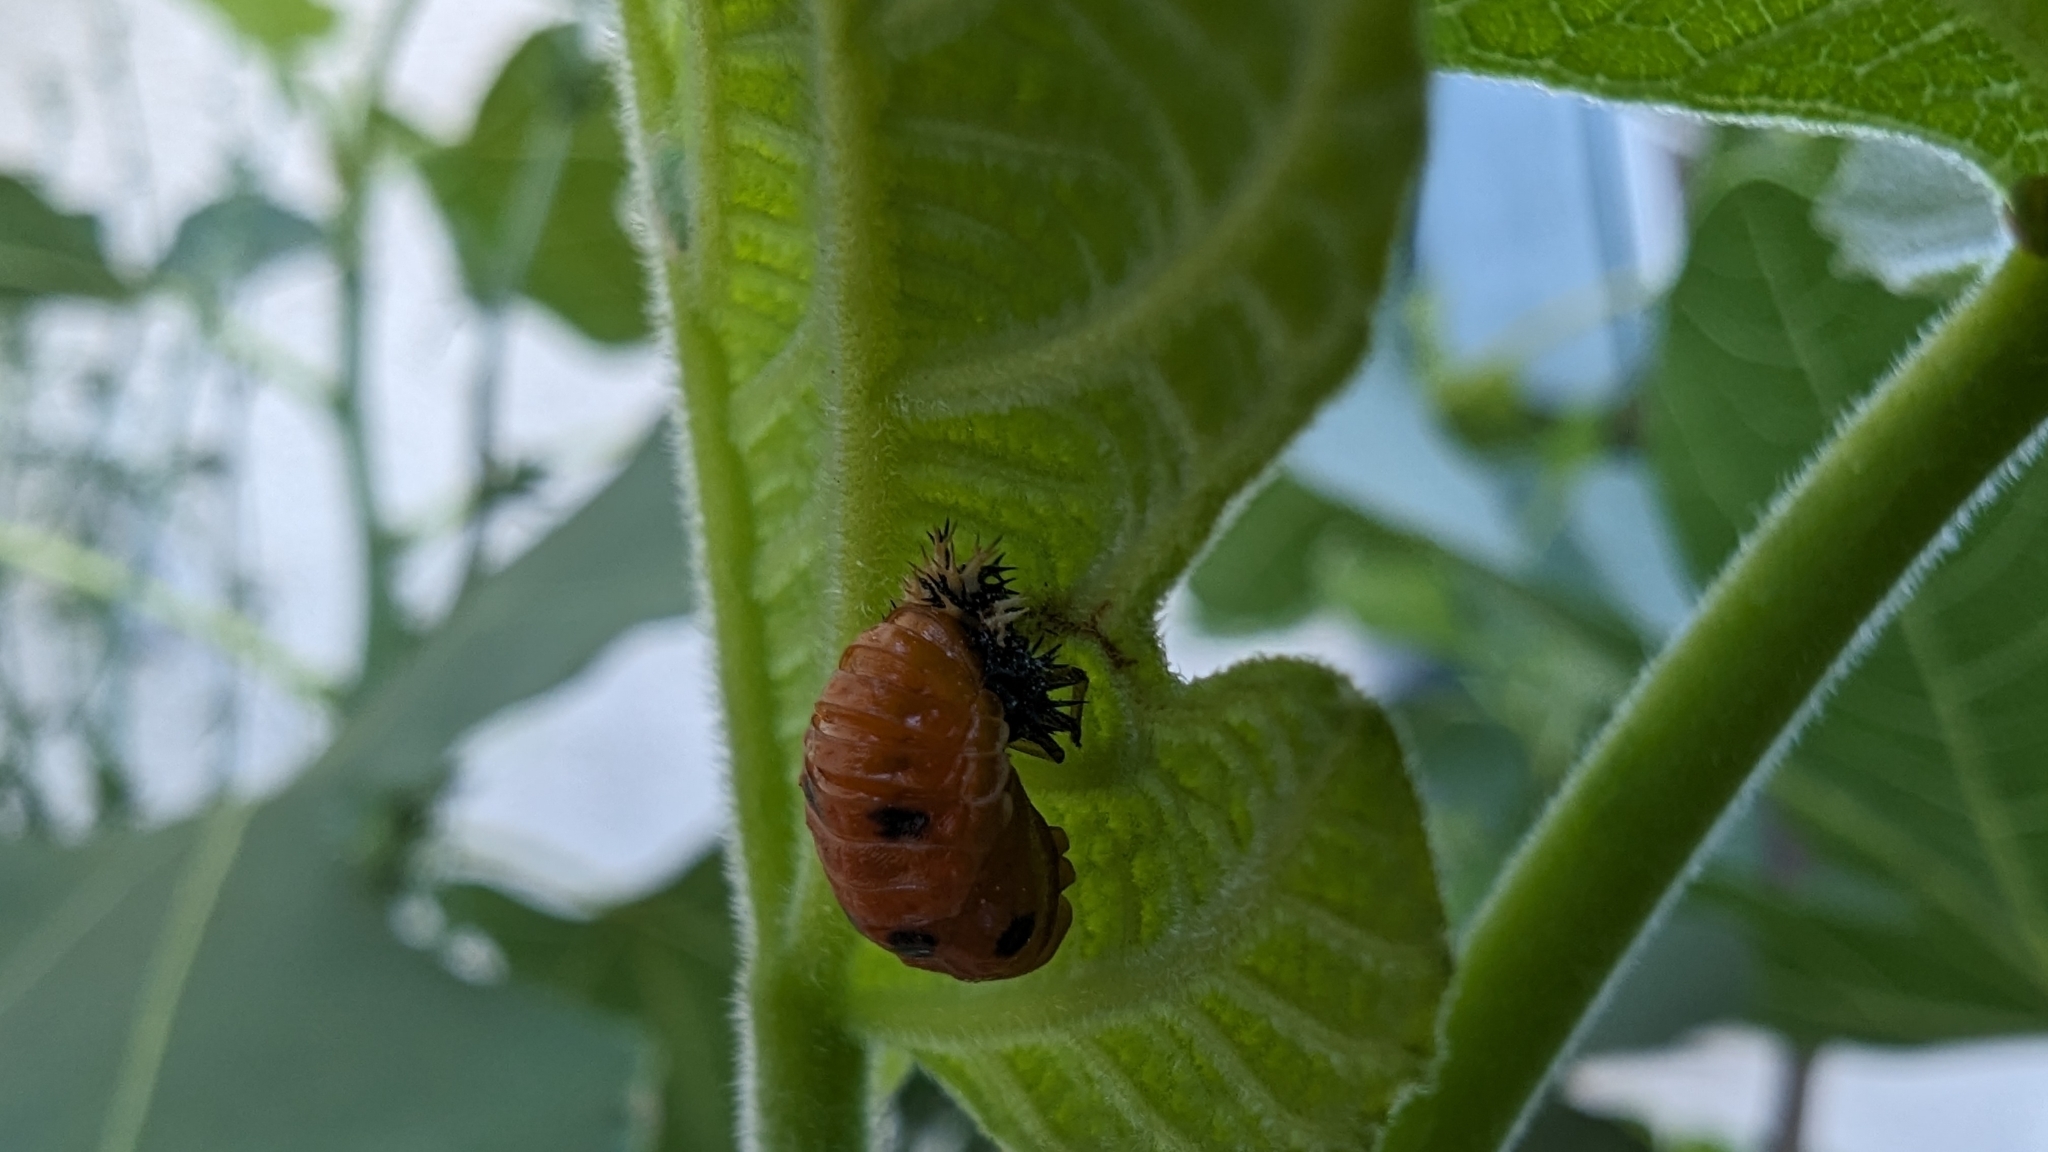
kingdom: Animalia
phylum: Arthropoda
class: Insecta
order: Coleoptera
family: Coccinellidae
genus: Harmonia
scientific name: Harmonia axyridis
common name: Harlequin ladybird
